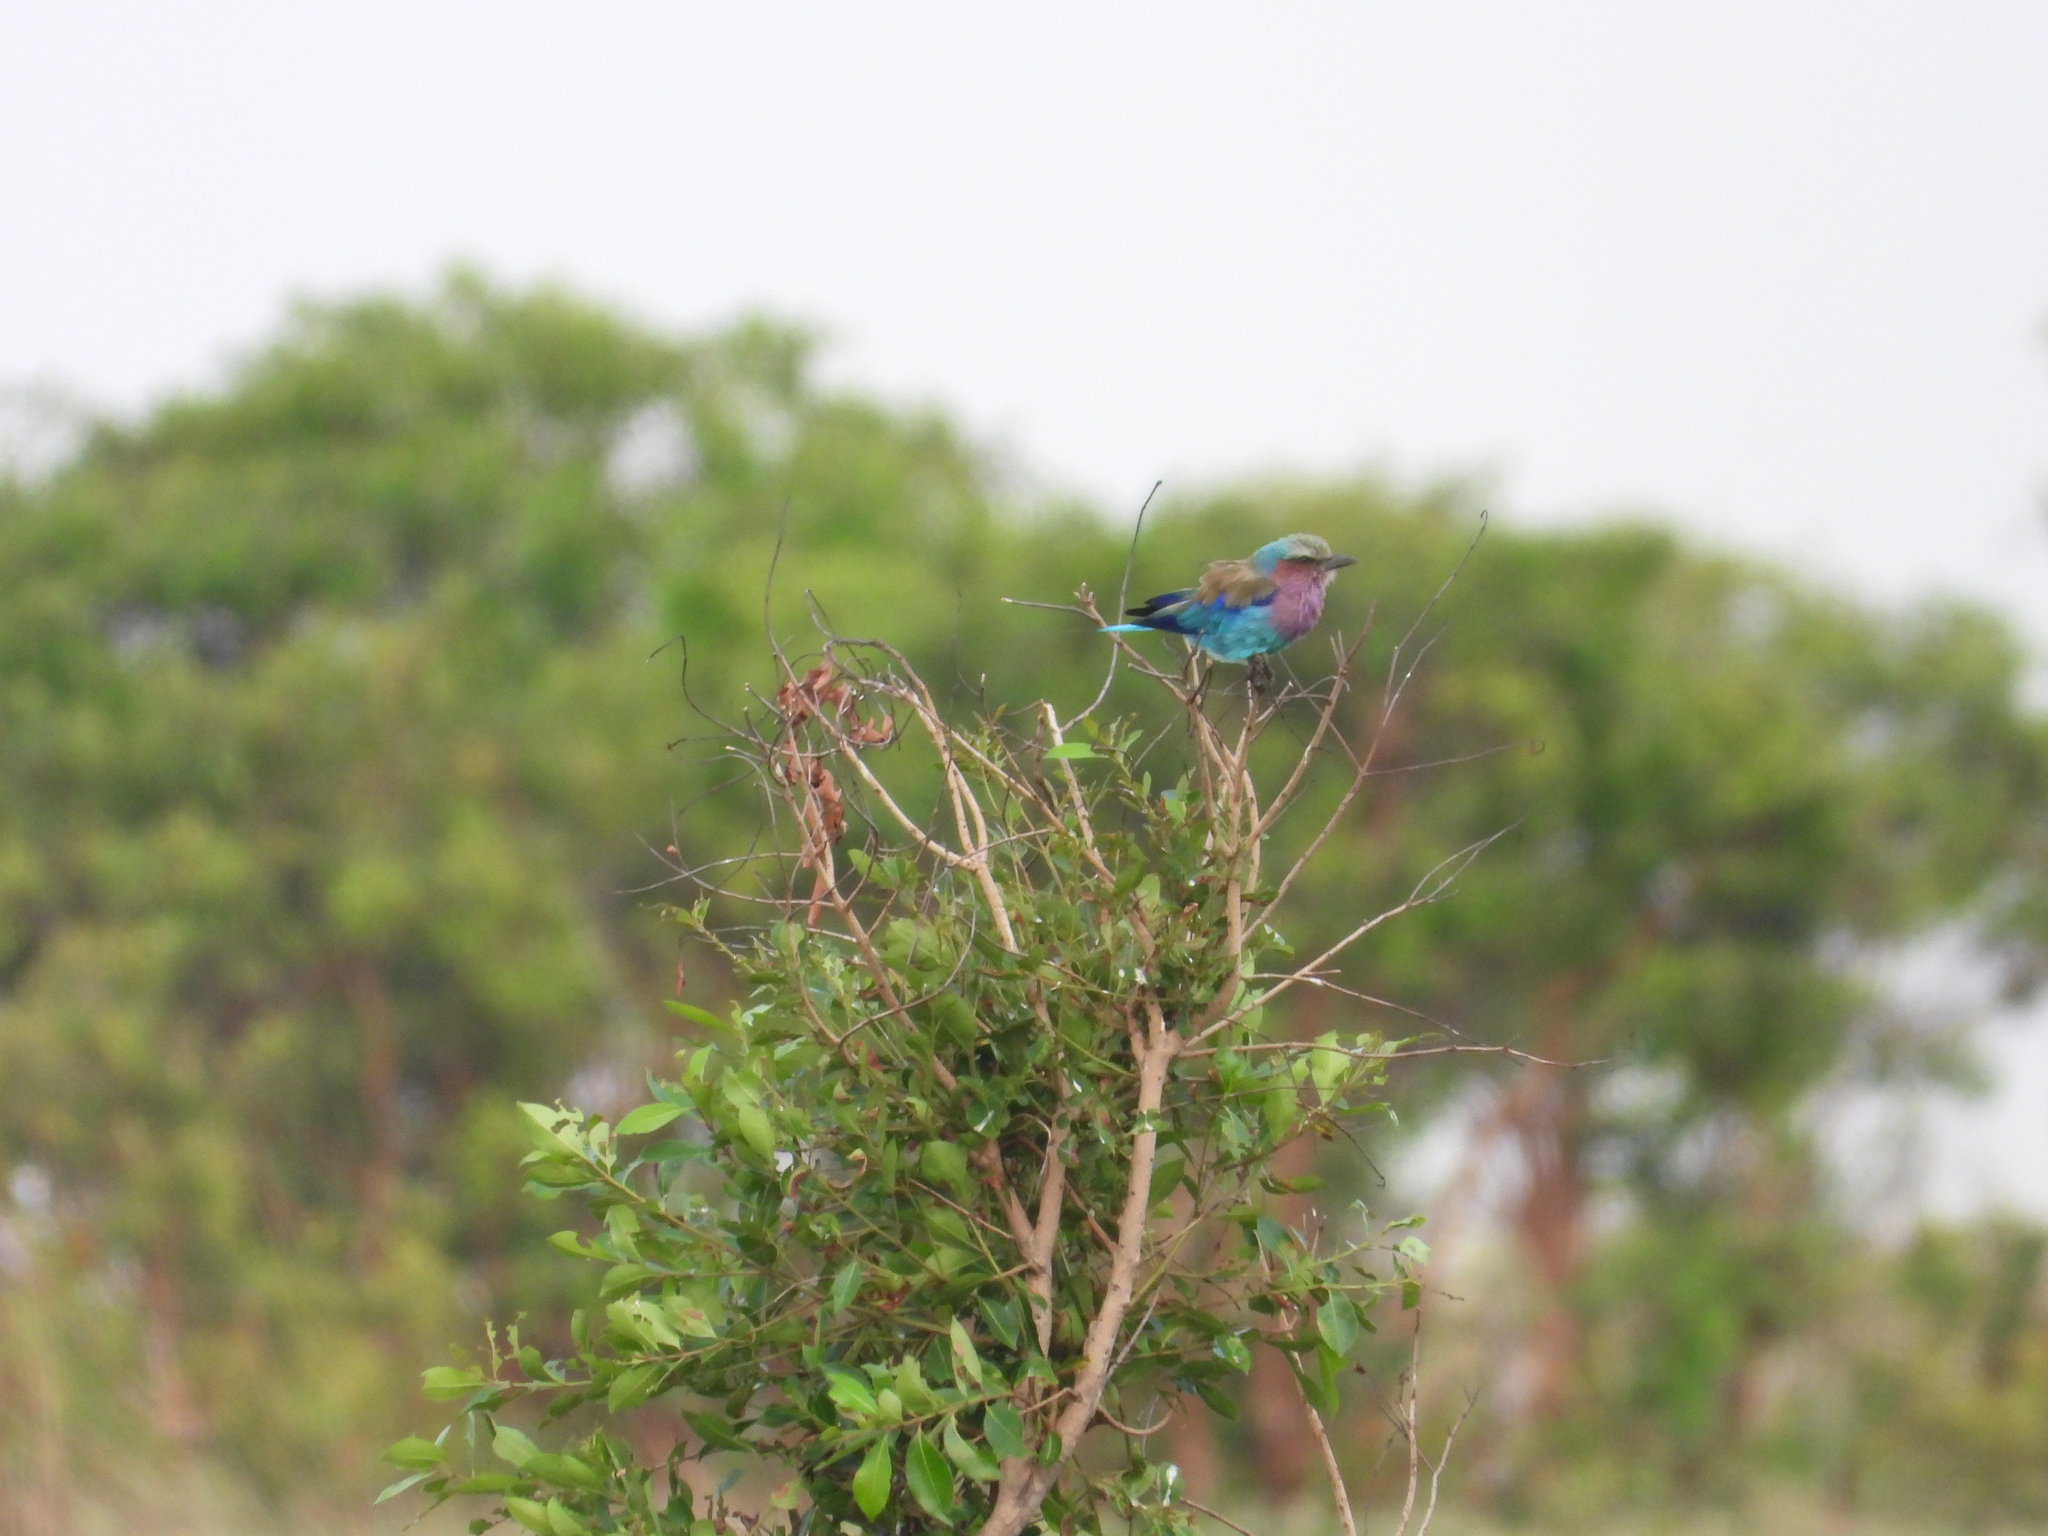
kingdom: Animalia
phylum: Chordata
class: Aves
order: Coraciiformes
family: Coraciidae
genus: Coracias
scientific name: Coracias caudatus
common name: Lilac-breasted roller
